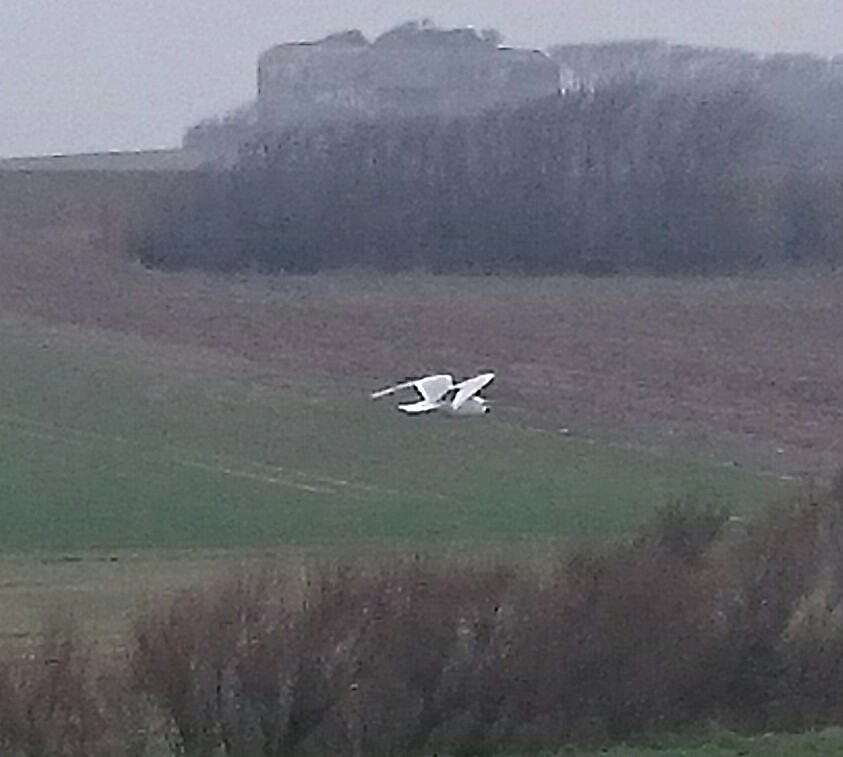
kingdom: Animalia
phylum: Chordata
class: Aves
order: Charadriiformes
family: Laridae
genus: Ichthyaetus
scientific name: Ichthyaetus melanocephalus
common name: Mediterranean gull
